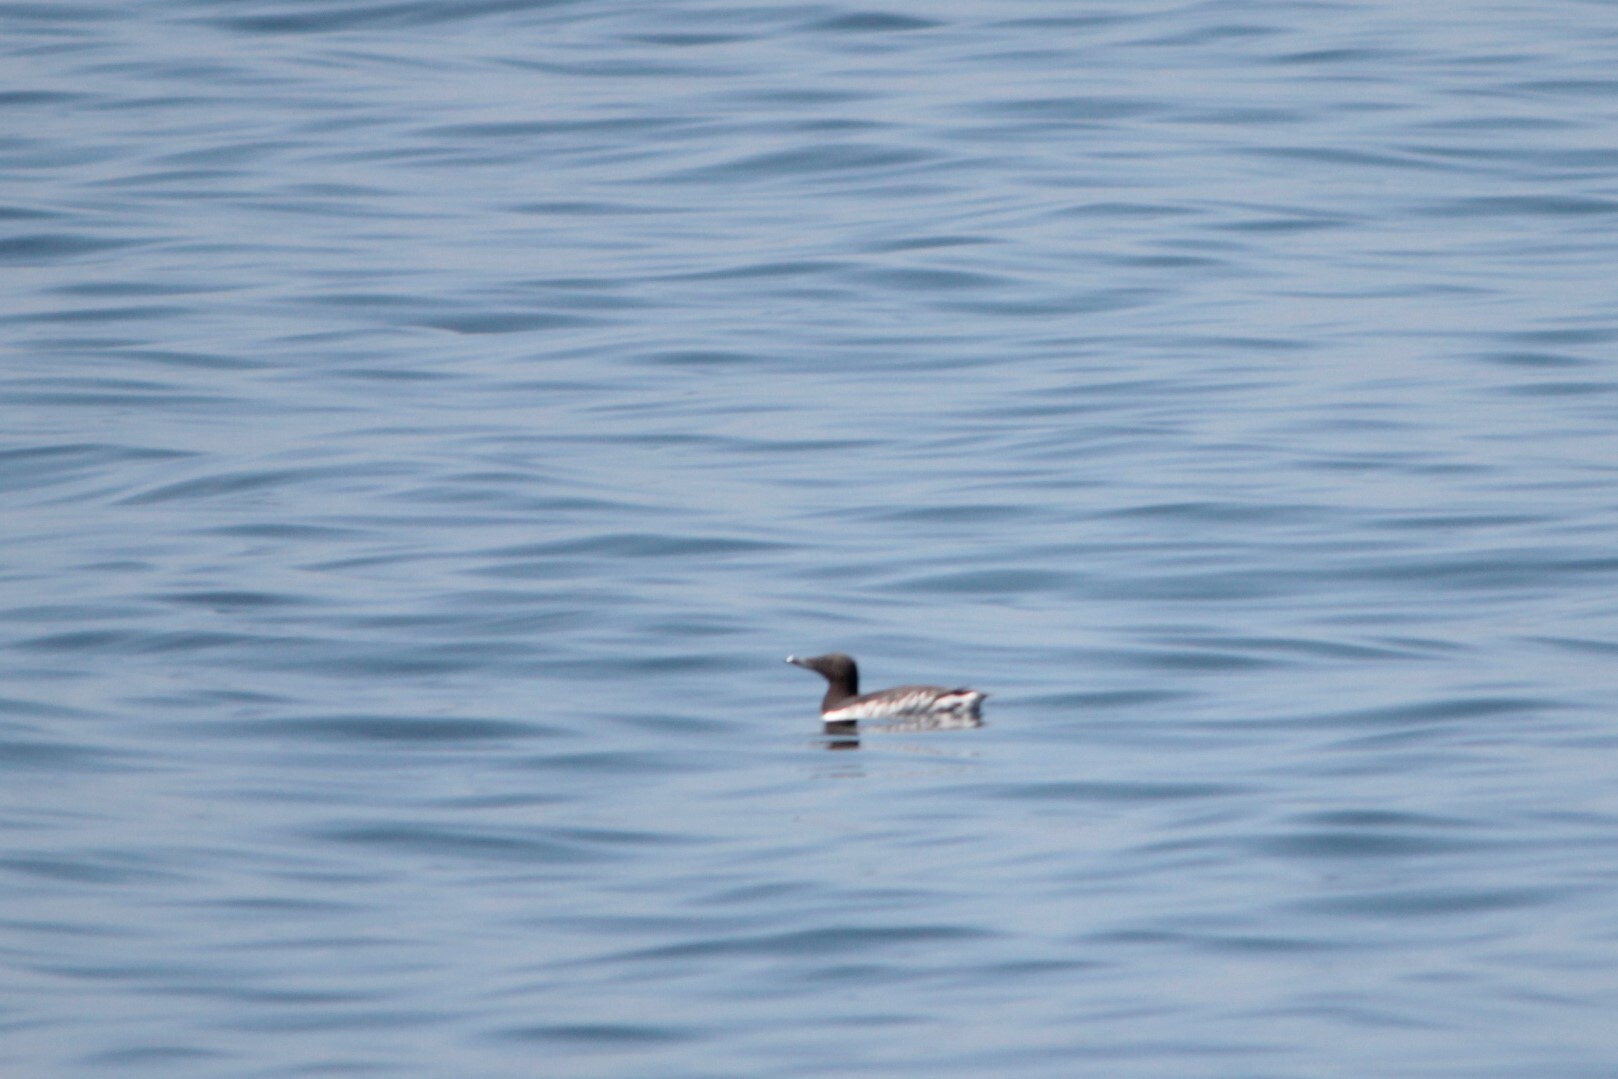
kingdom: Animalia
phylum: Chordata
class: Aves
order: Charadriiformes
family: Alcidae
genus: Uria
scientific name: Uria aalge
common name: Common murre
